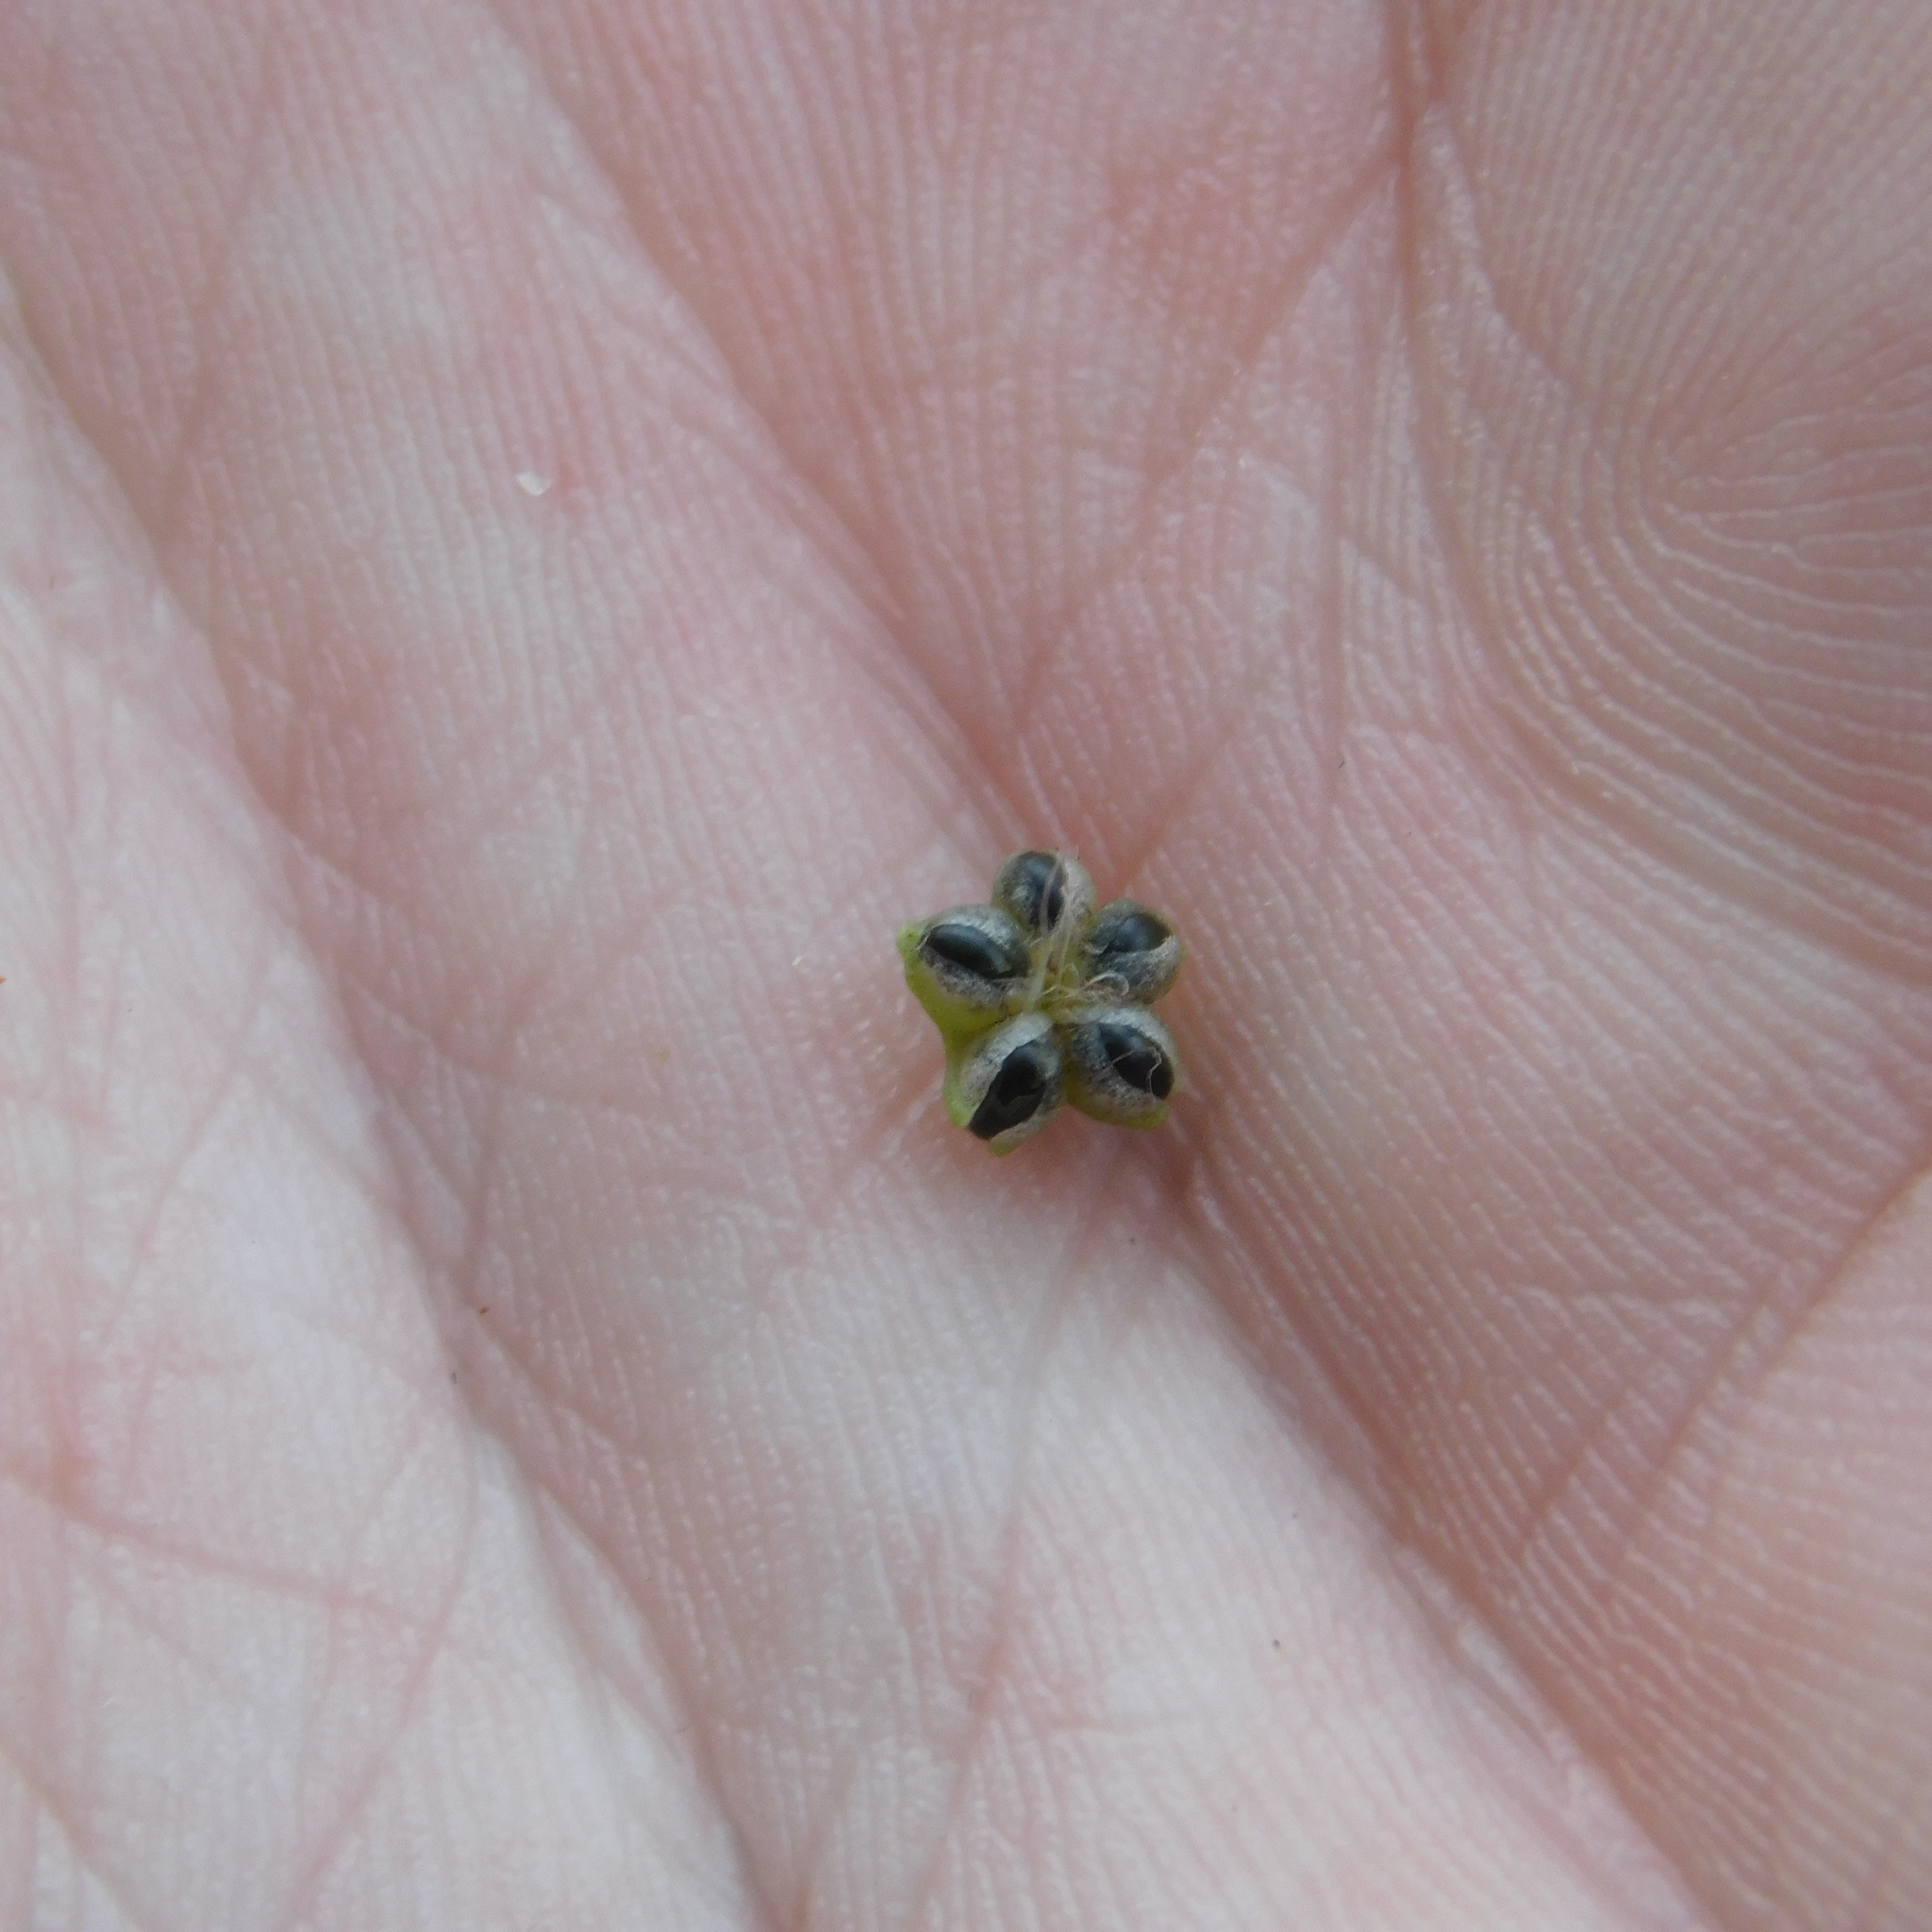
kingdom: Plantae
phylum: Marchantiophyta
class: Marchantiopsida
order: Marchantiales
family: Aytoniaceae
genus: Reboulia
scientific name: Reboulia hemisphaerica
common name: Purple-margined liverwort
